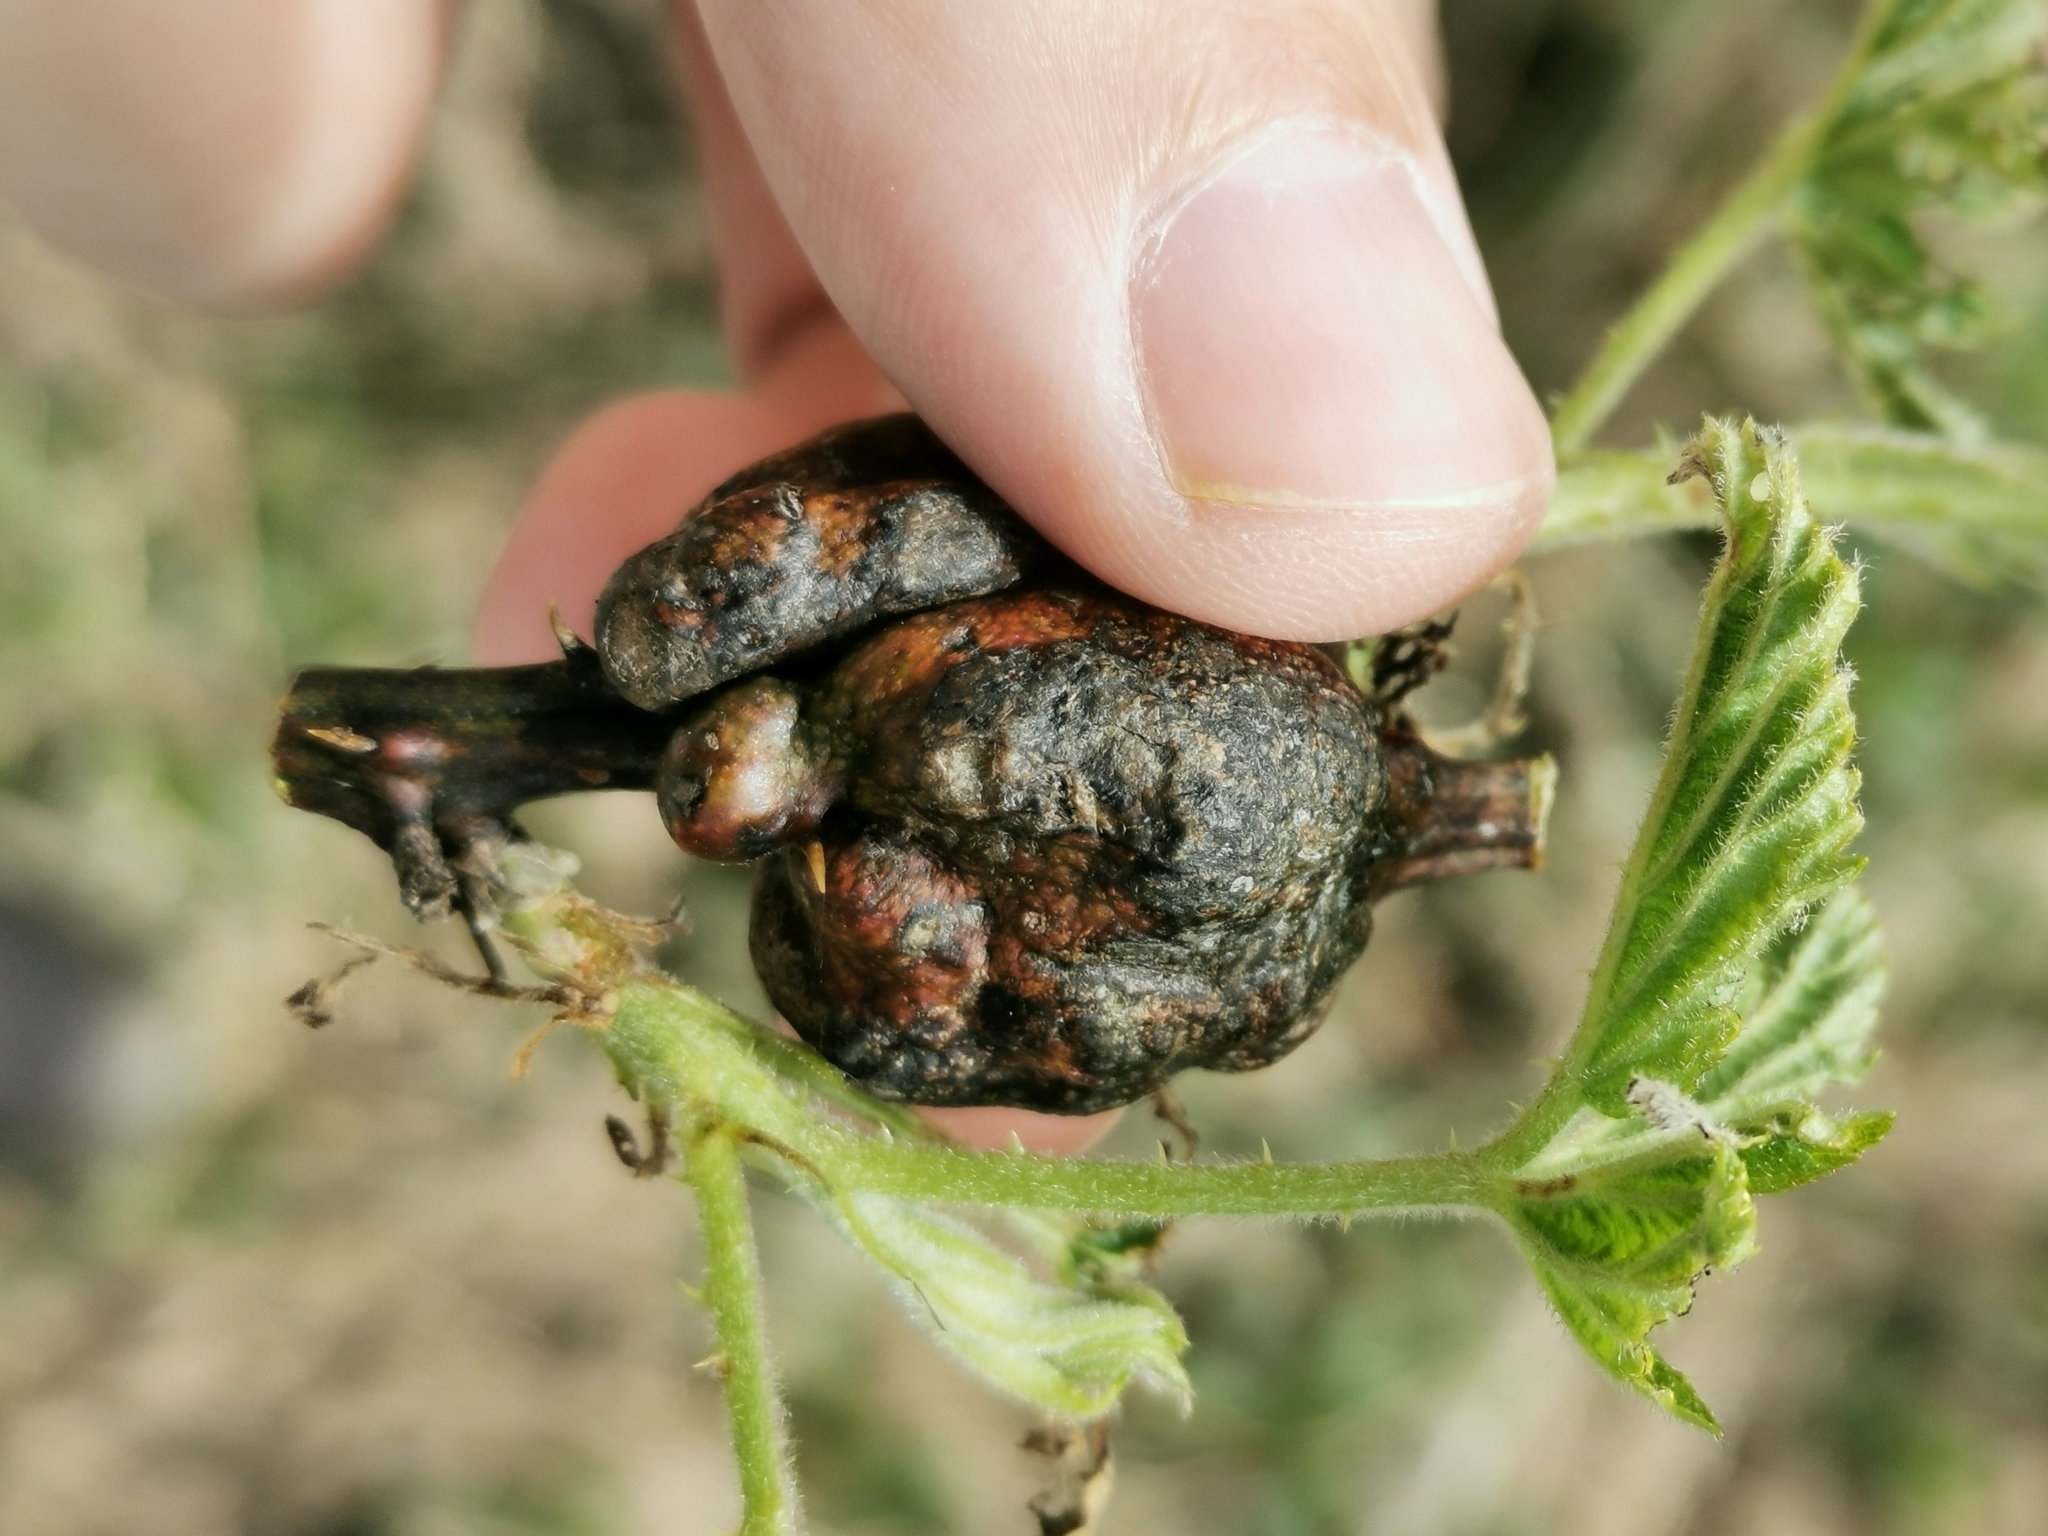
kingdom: Animalia
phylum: Arthropoda
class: Insecta
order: Hymenoptera
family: Cynipidae
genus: Diastrophus
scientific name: Diastrophus
